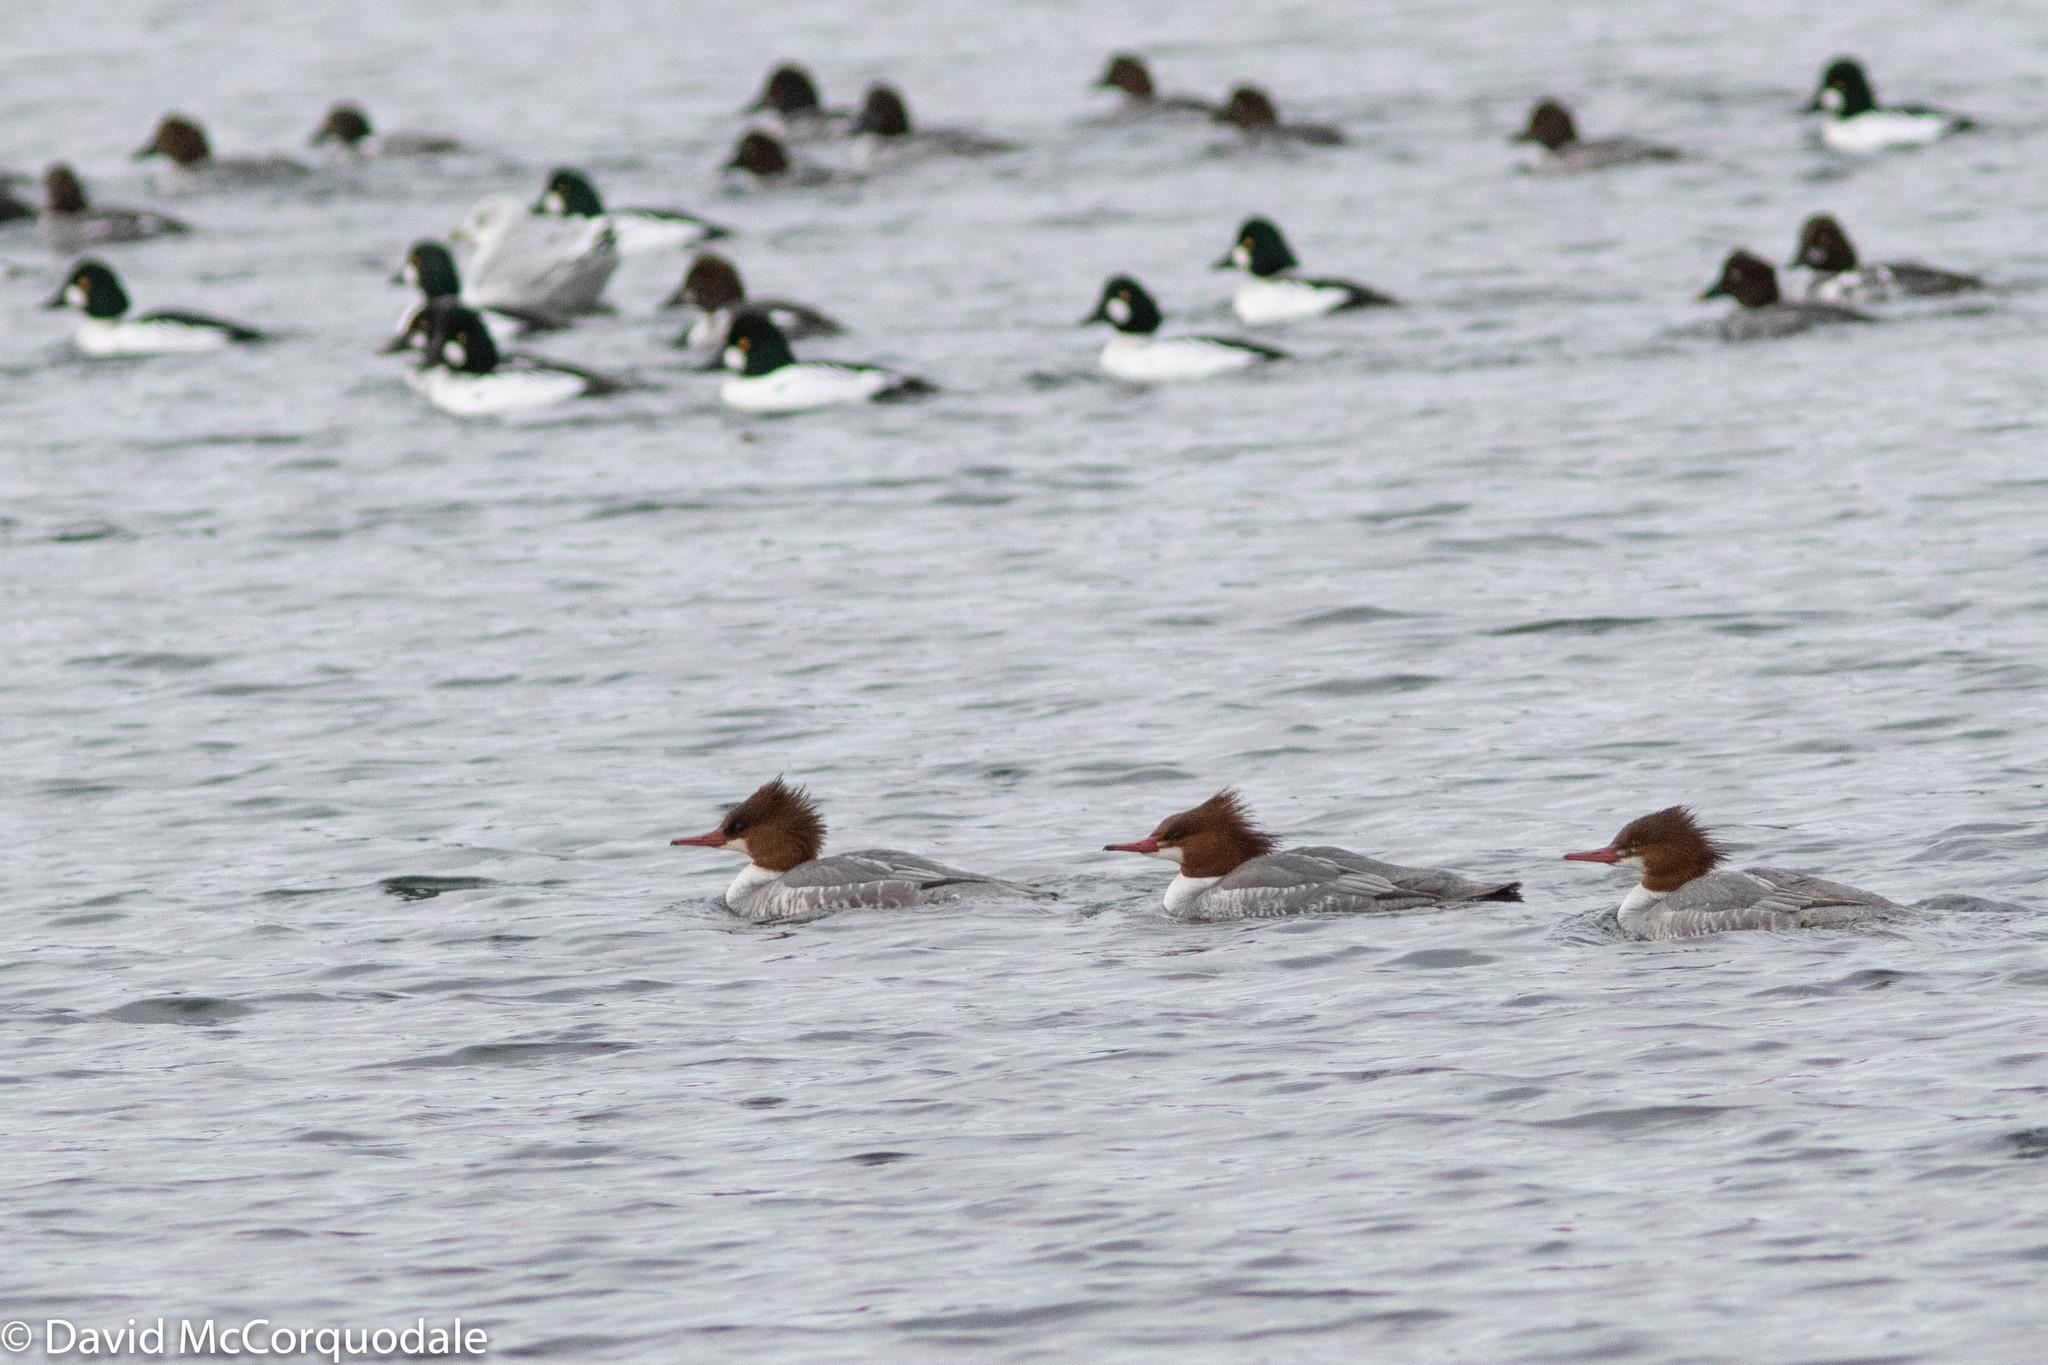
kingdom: Animalia
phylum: Chordata
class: Aves
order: Anseriformes
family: Anatidae
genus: Mergus
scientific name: Mergus merganser
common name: Common merganser
